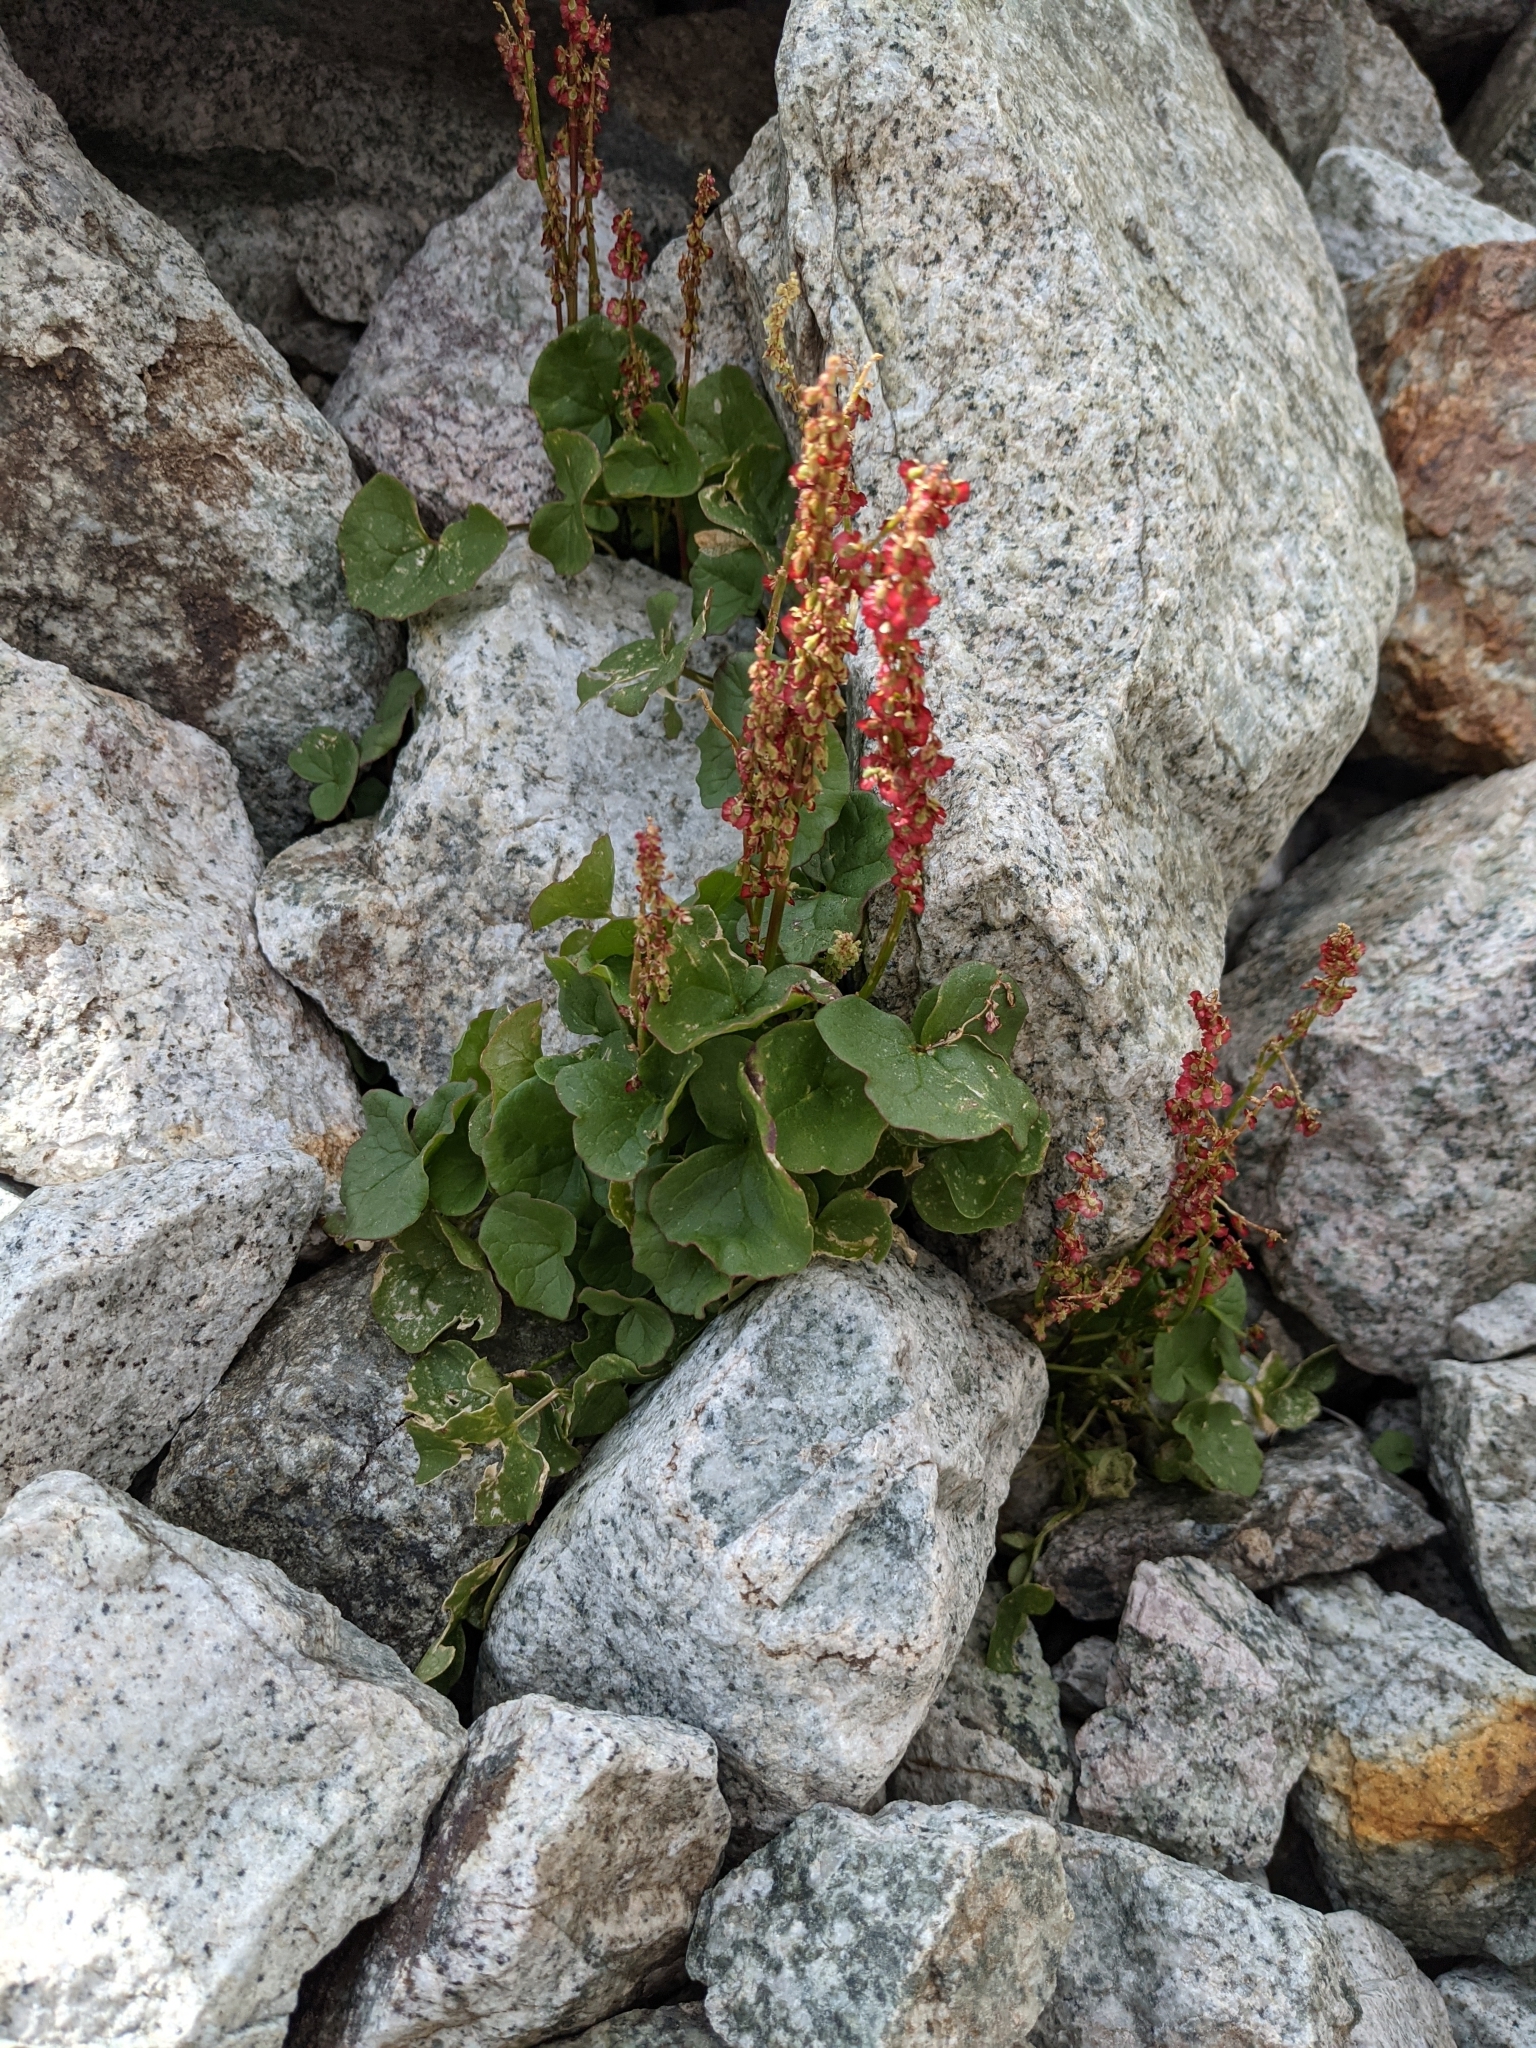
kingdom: Plantae
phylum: Tracheophyta
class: Magnoliopsida
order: Caryophyllales
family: Polygonaceae
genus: Oxyria
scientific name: Oxyria digyna
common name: Alpine mountain-sorrel
